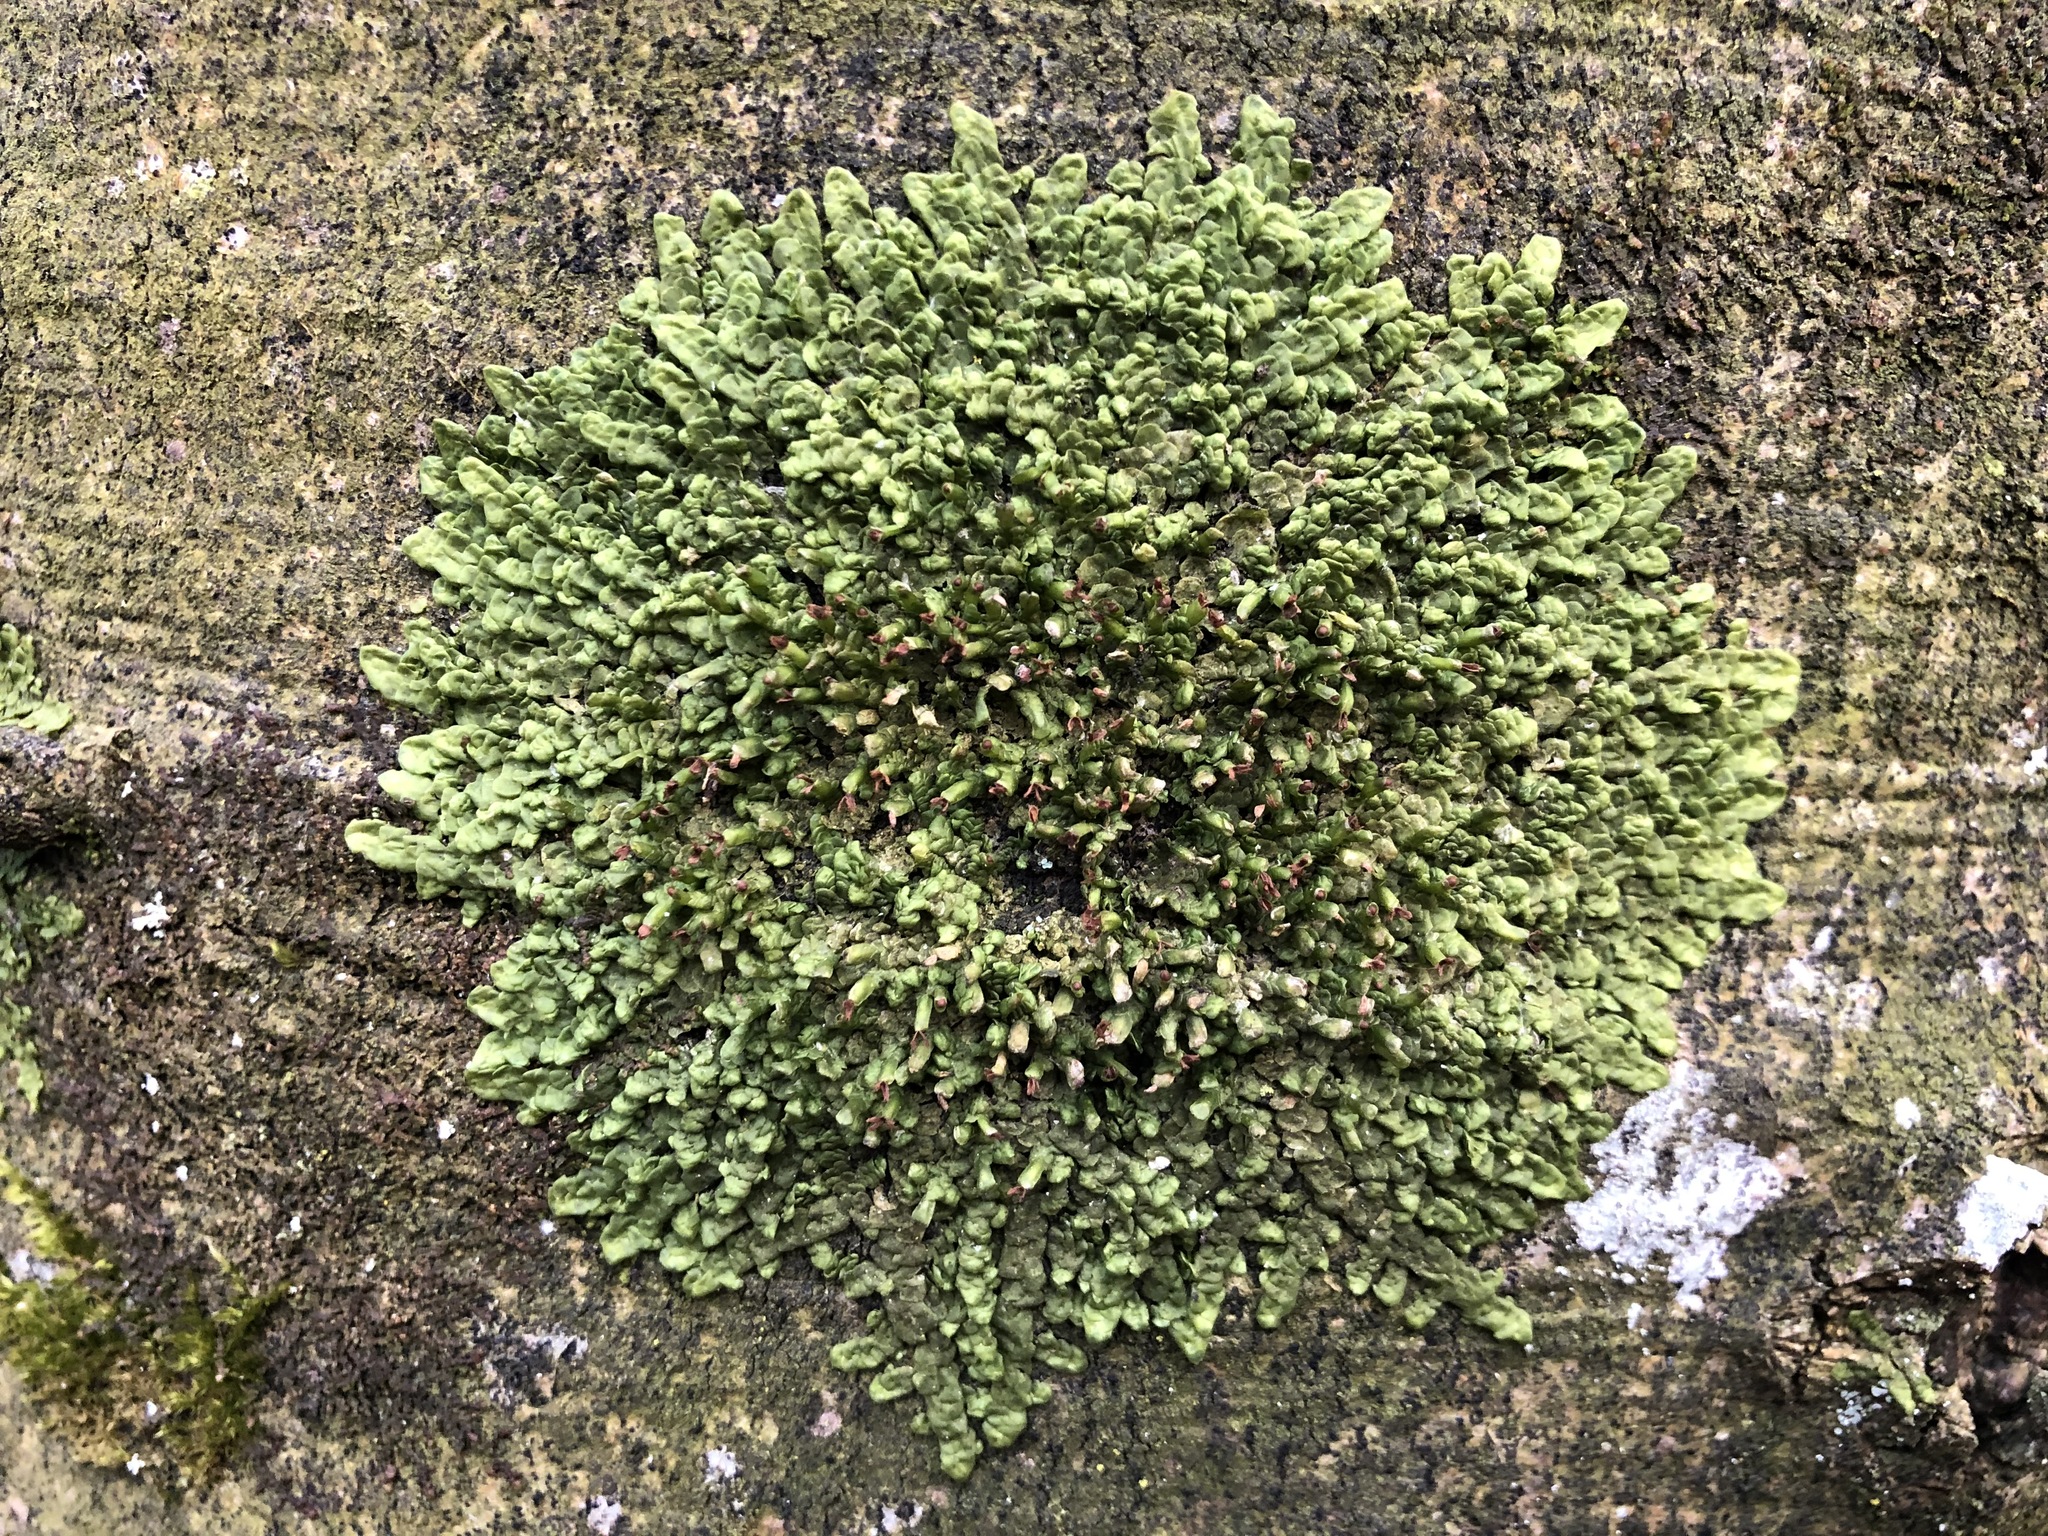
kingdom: Plantae
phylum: Marchantiophyta
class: Jungermanniopsida
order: Porellales
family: Radulaceae
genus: Radula
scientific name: Radula complanata
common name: Flat-leaved scalewort
